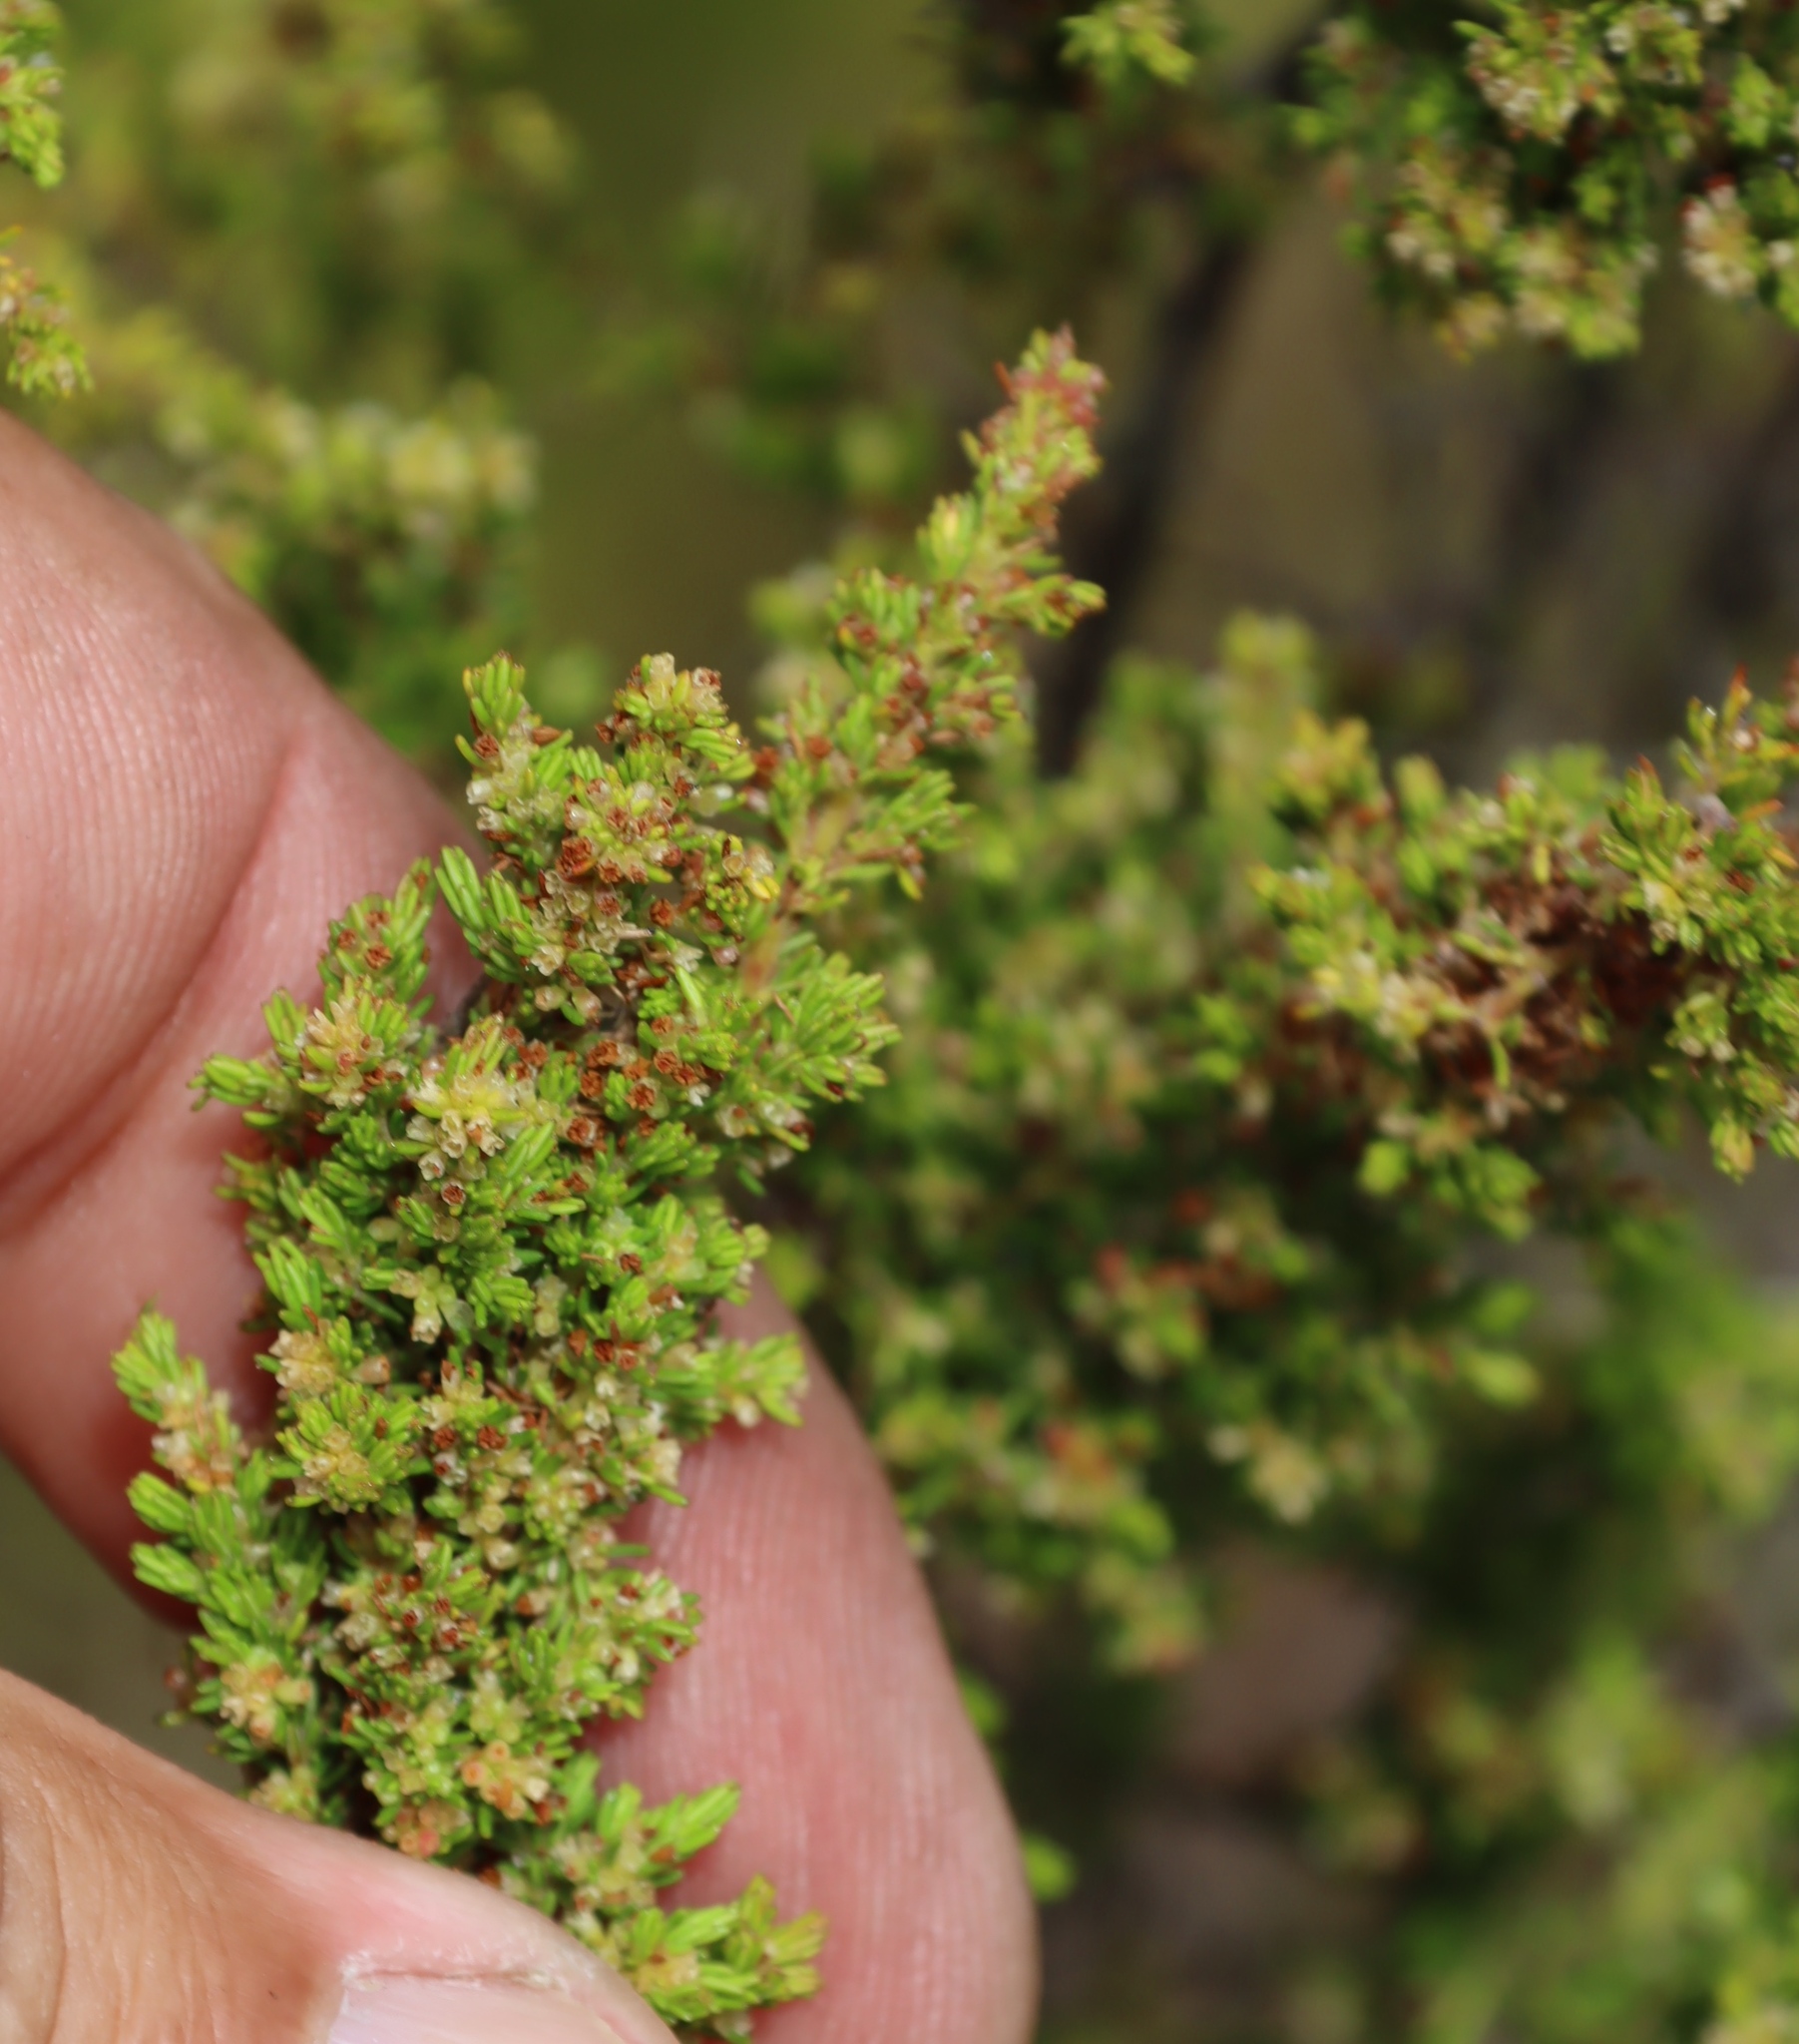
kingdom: Plantae
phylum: Tracheophyta
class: Magnoliopsida
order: Ericales
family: Ericaceae
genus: Erica
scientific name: Erica muscosa
